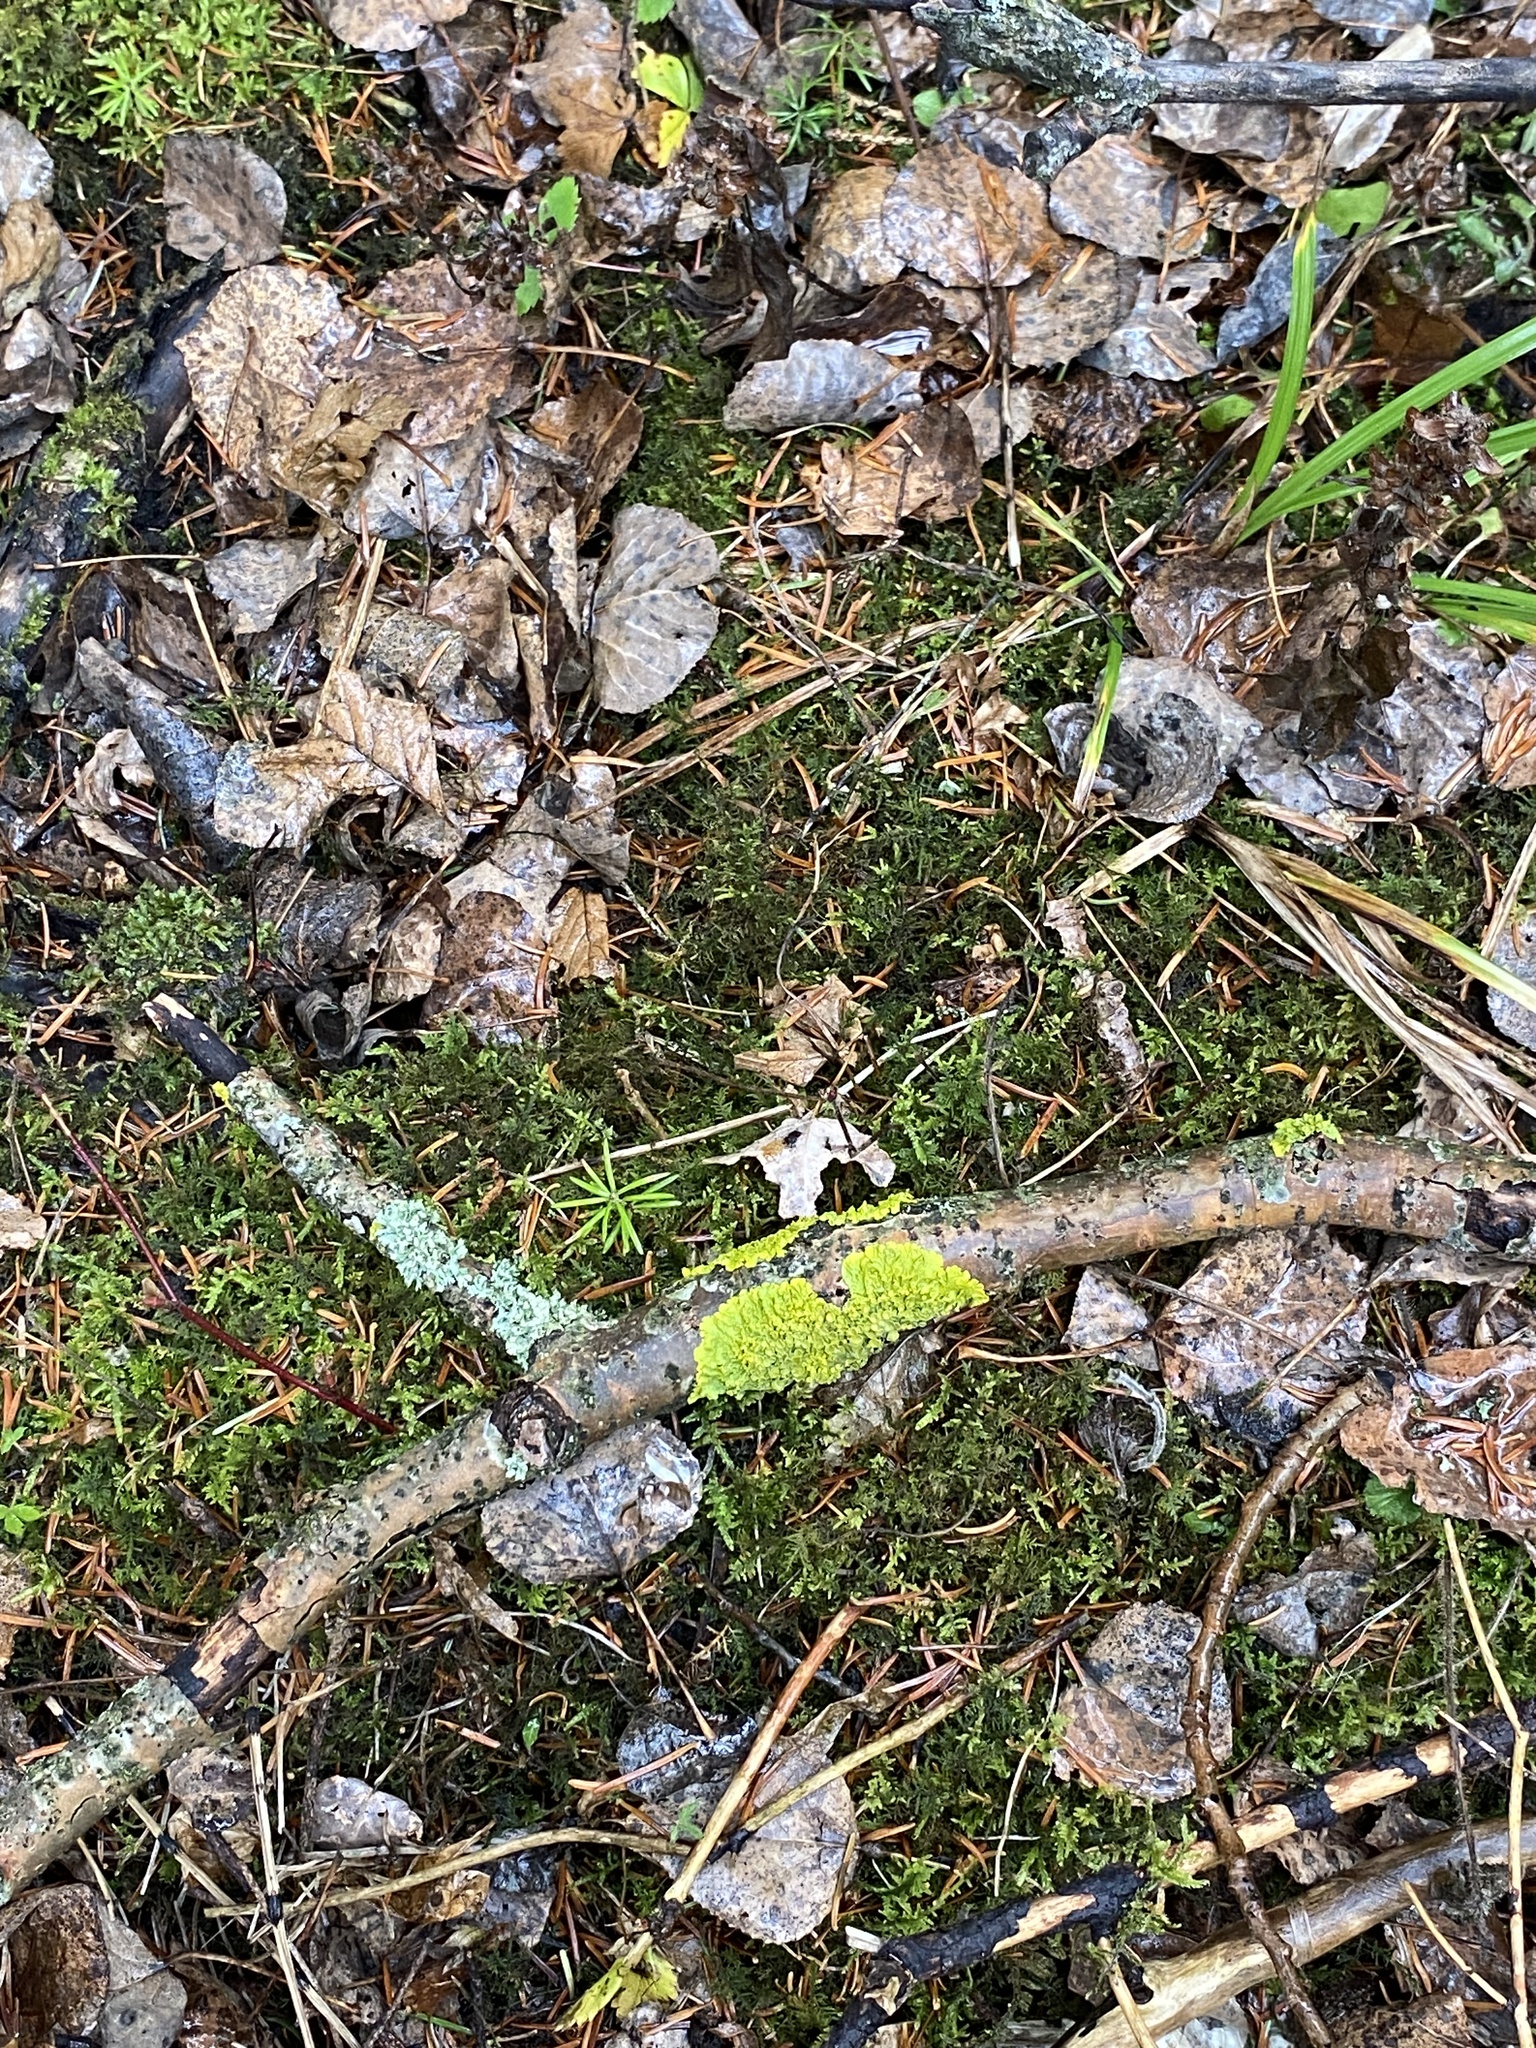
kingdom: Fungi
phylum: Ascomycota
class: Lecanoromycetes
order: Teloschistales
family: Teloschistaceae
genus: Xanthoria
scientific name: Xanthoria parietina
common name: Common orange lichen
